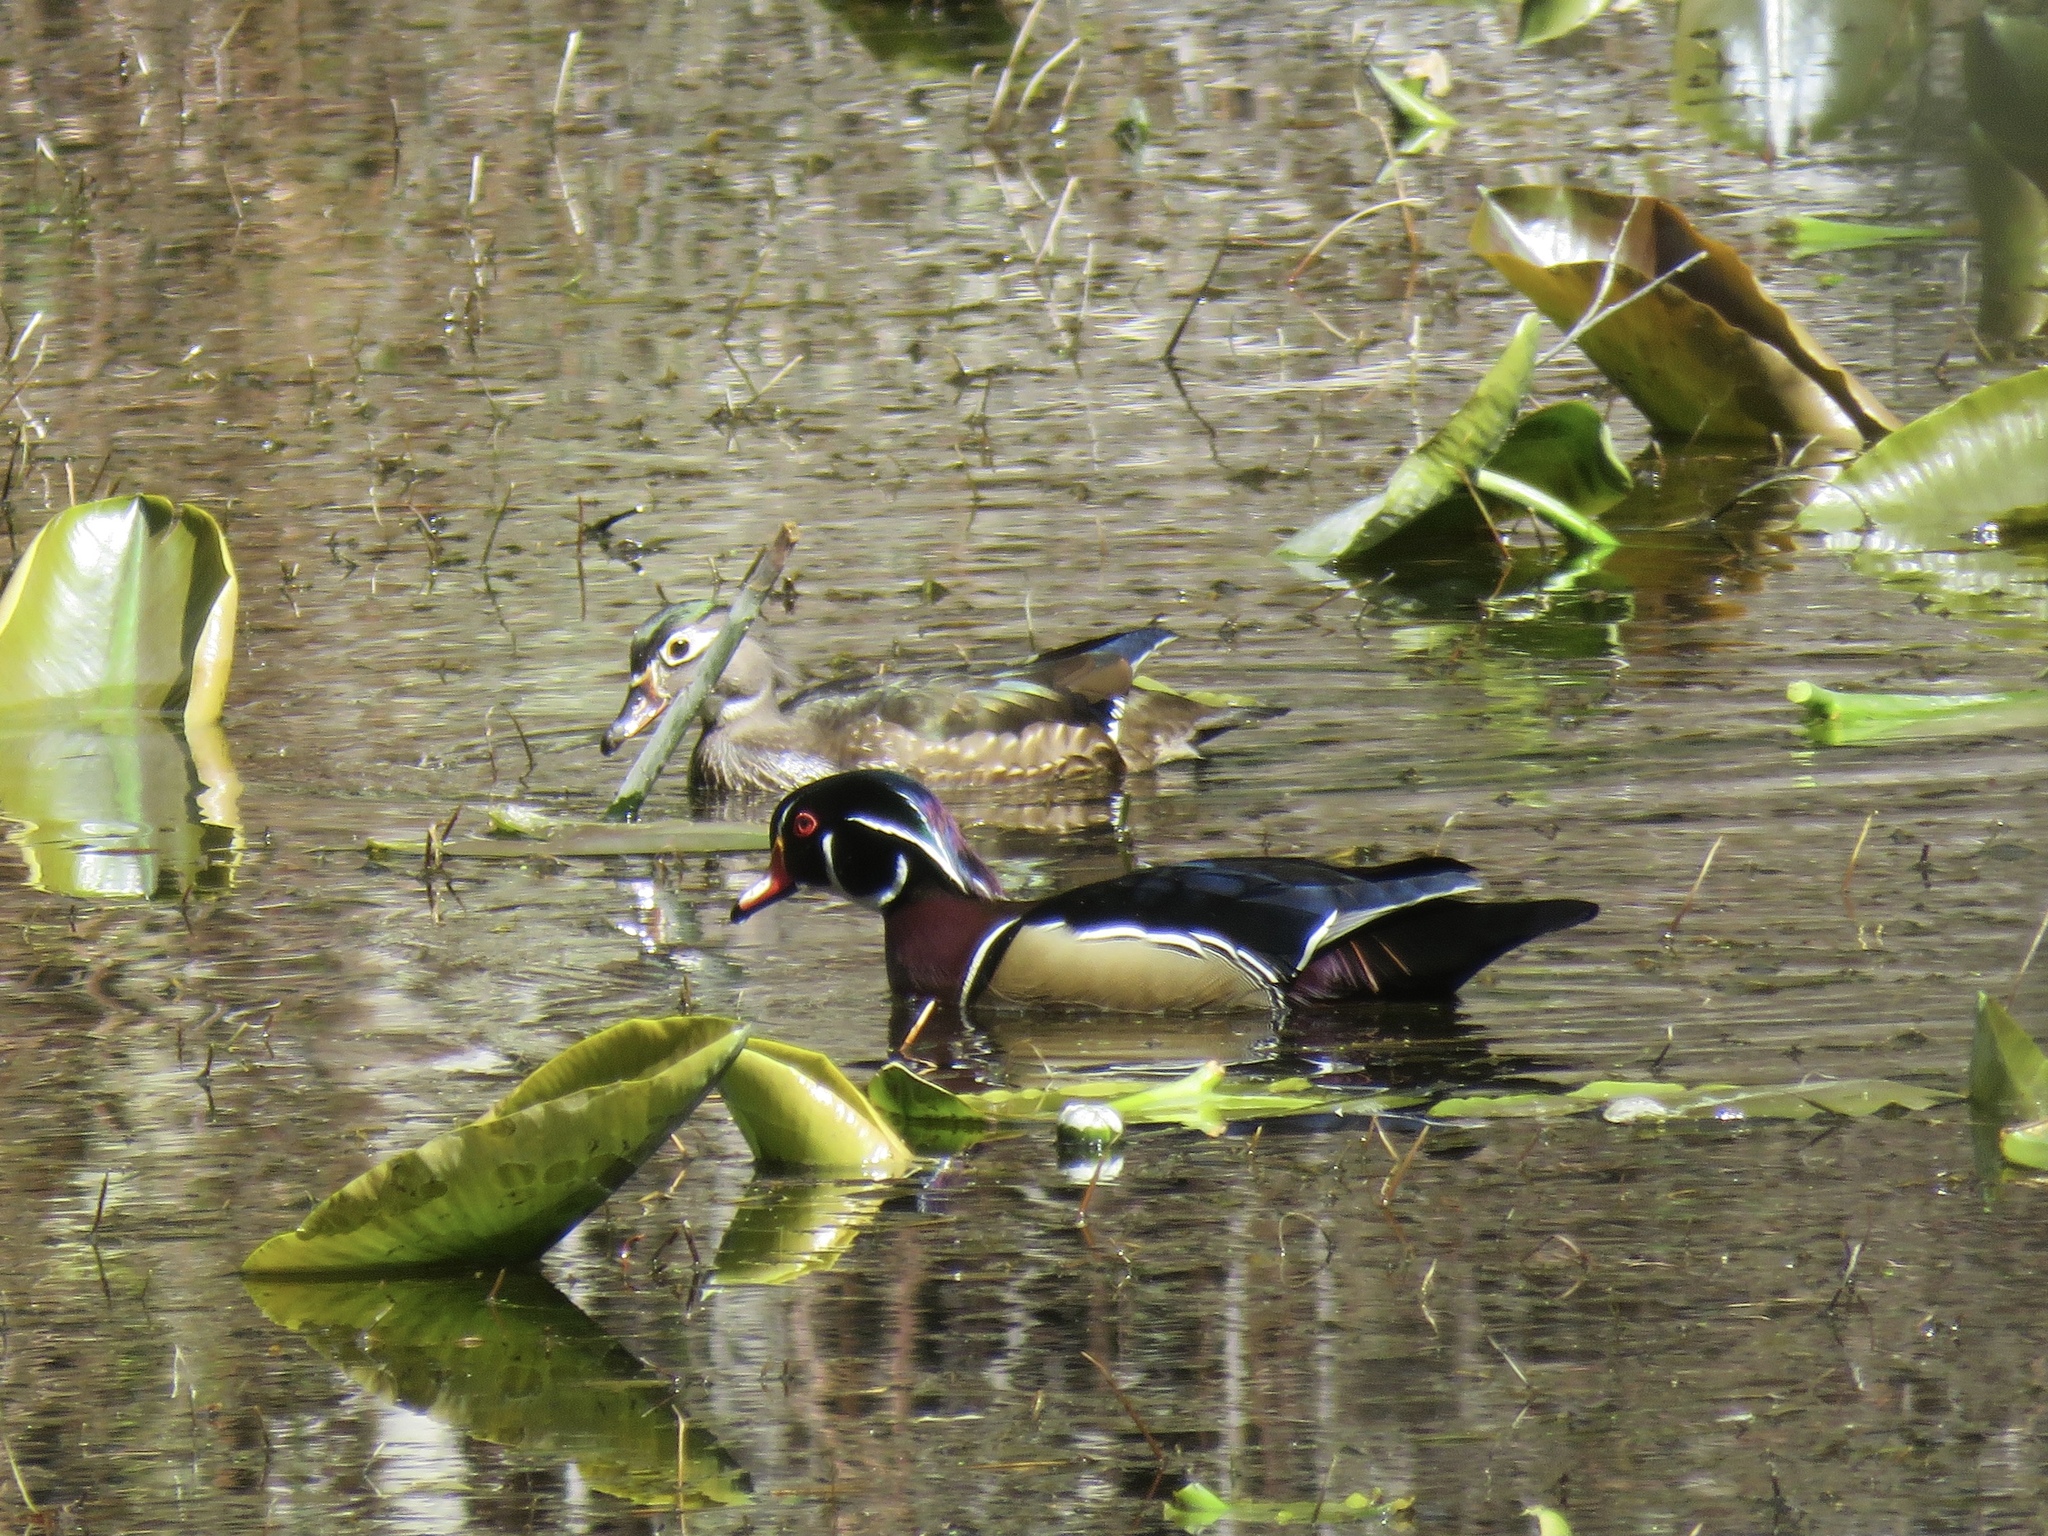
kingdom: Animalia
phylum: Chordata
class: Aves
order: Anseriformes
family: Anatidae
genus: Aix
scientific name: Aix sponsa
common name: Wood duck
